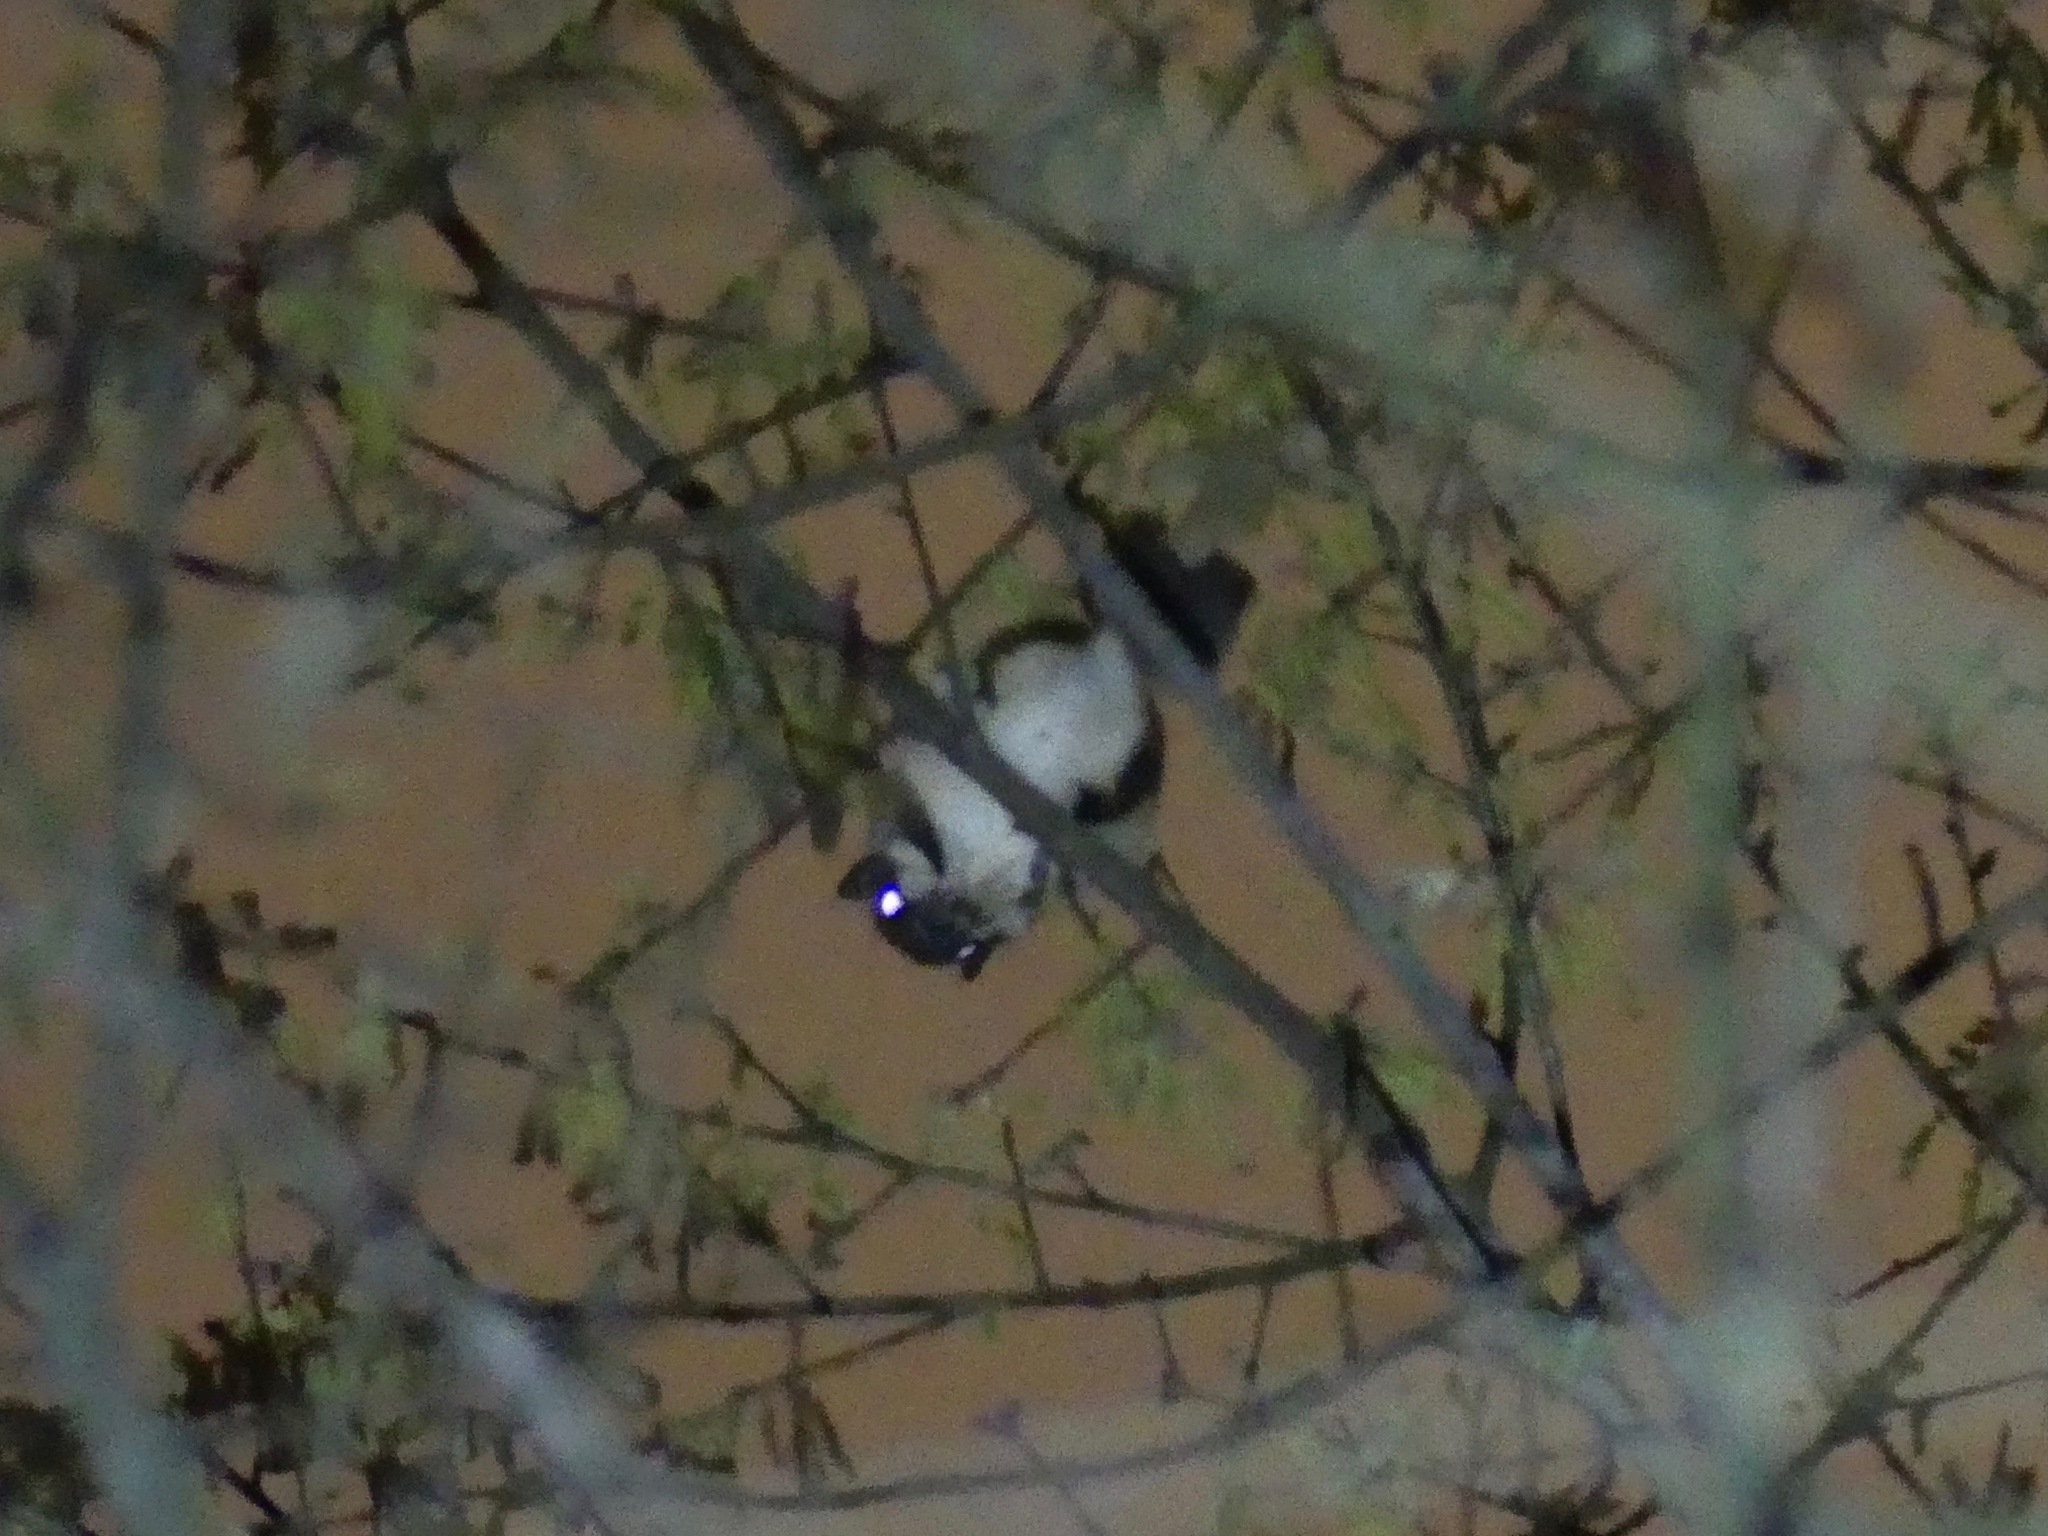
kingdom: Animalia
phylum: Chordata
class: Mammalia
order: Rodentia
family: Sciuridae
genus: Glaucomys
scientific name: Glaucomys volans
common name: Southern flying squirrel
